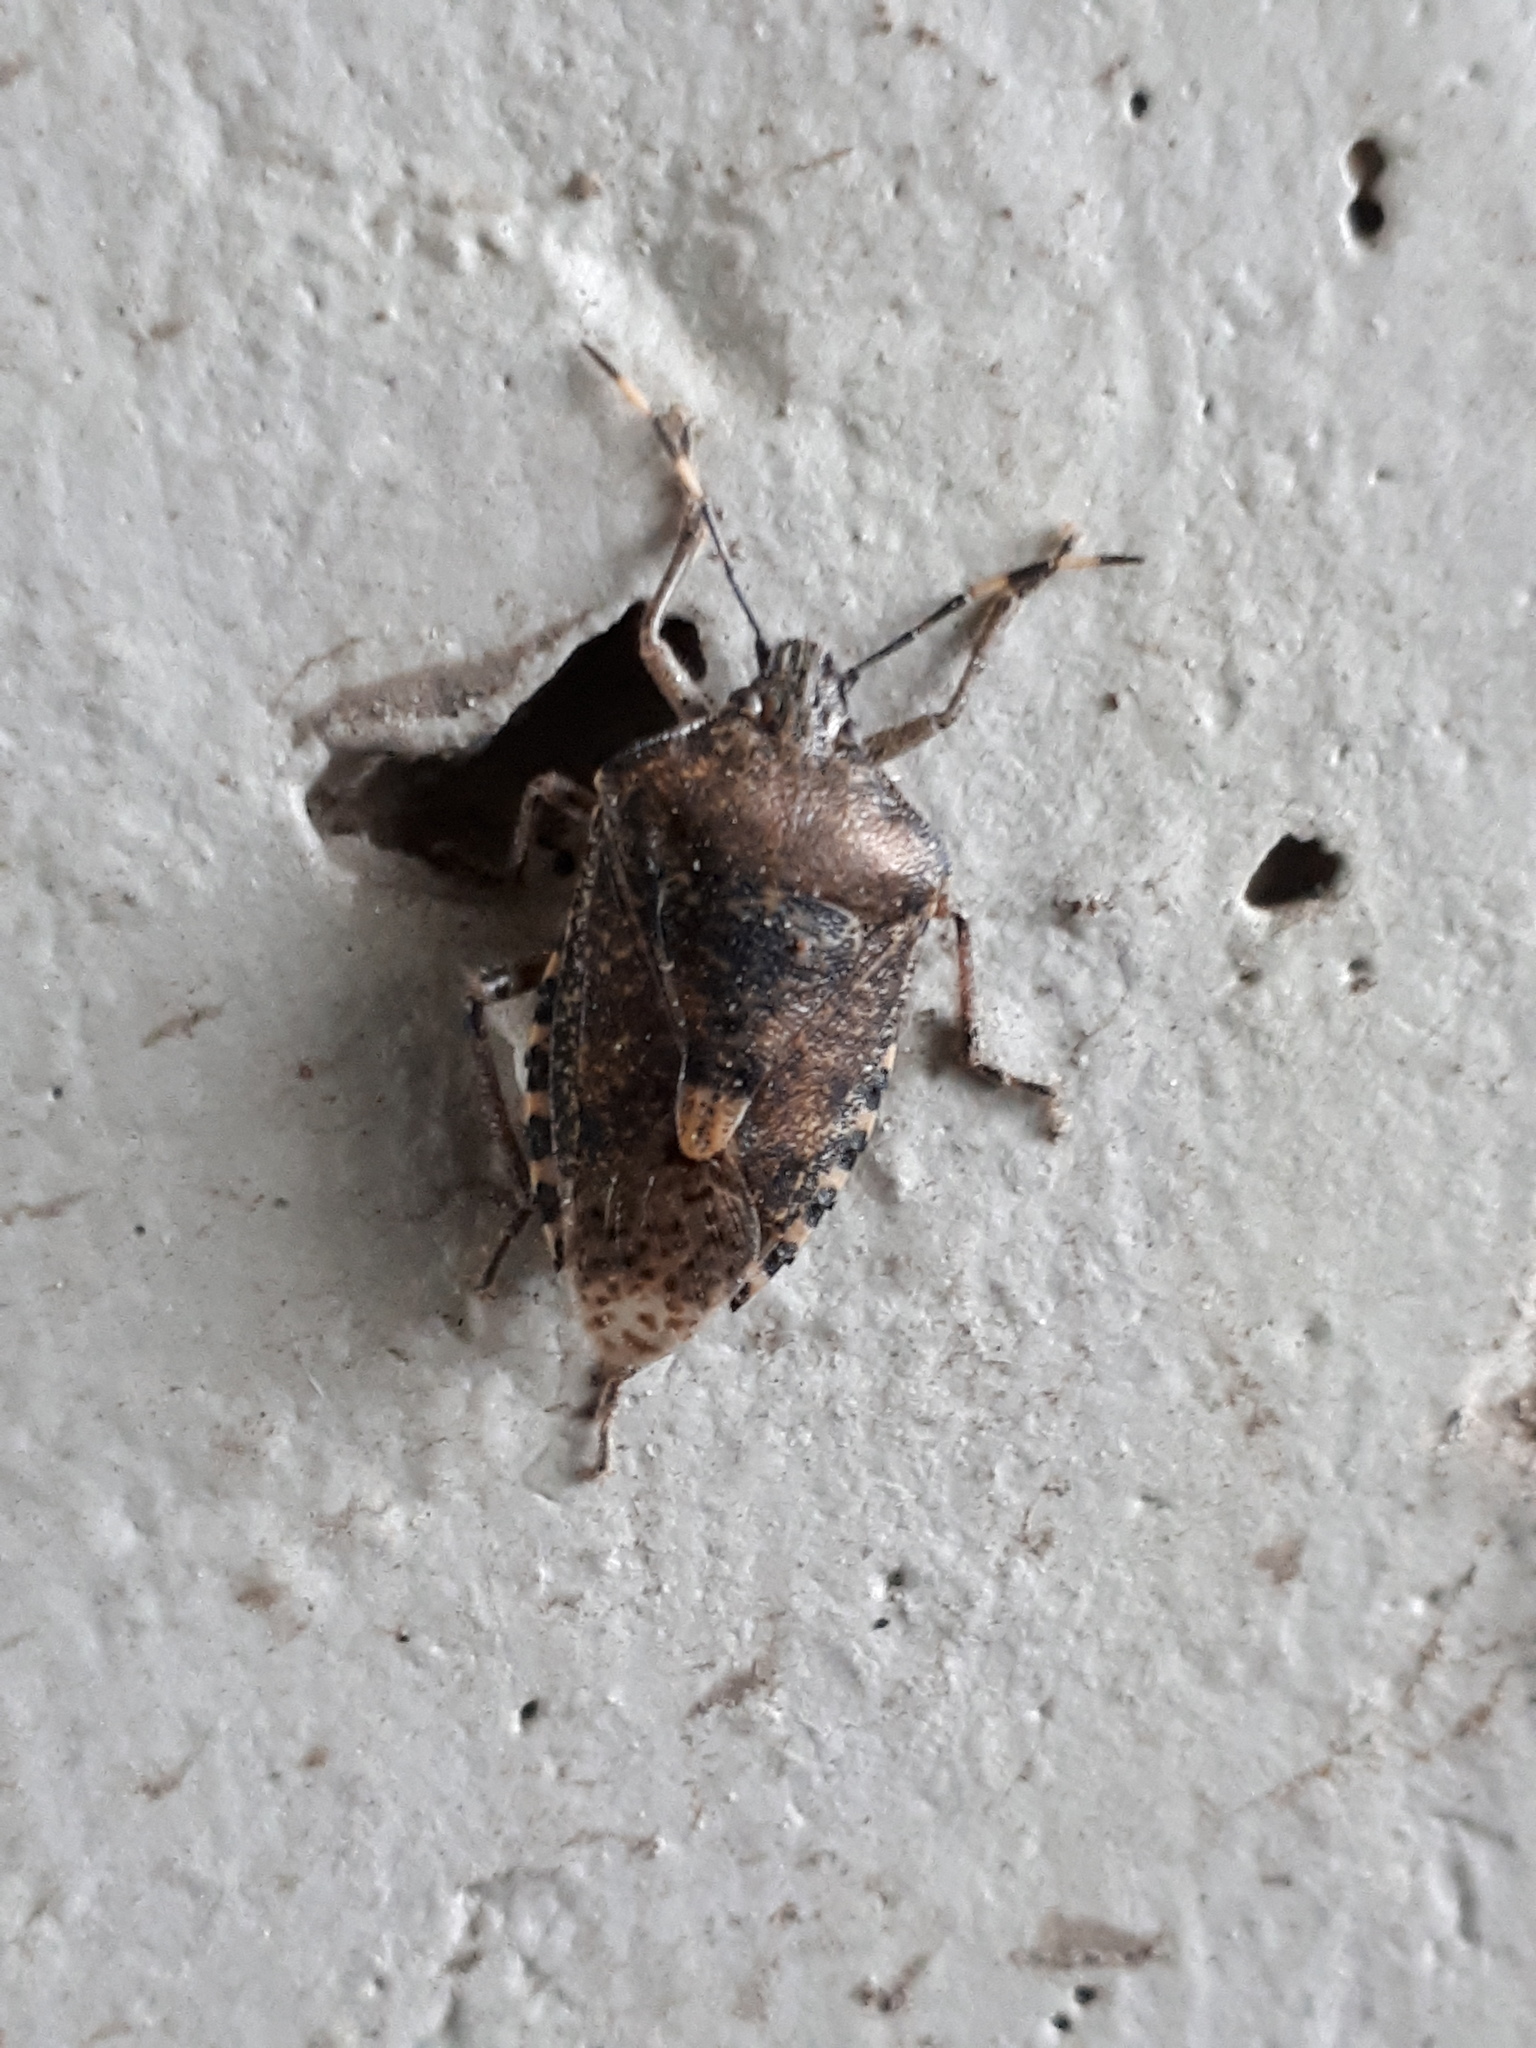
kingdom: Animalia
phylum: Arthropoda
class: Insecta
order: Hemiptera
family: Pentatomidae
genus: Rhaphigaster
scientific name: Rhaphigaster nebulosa
